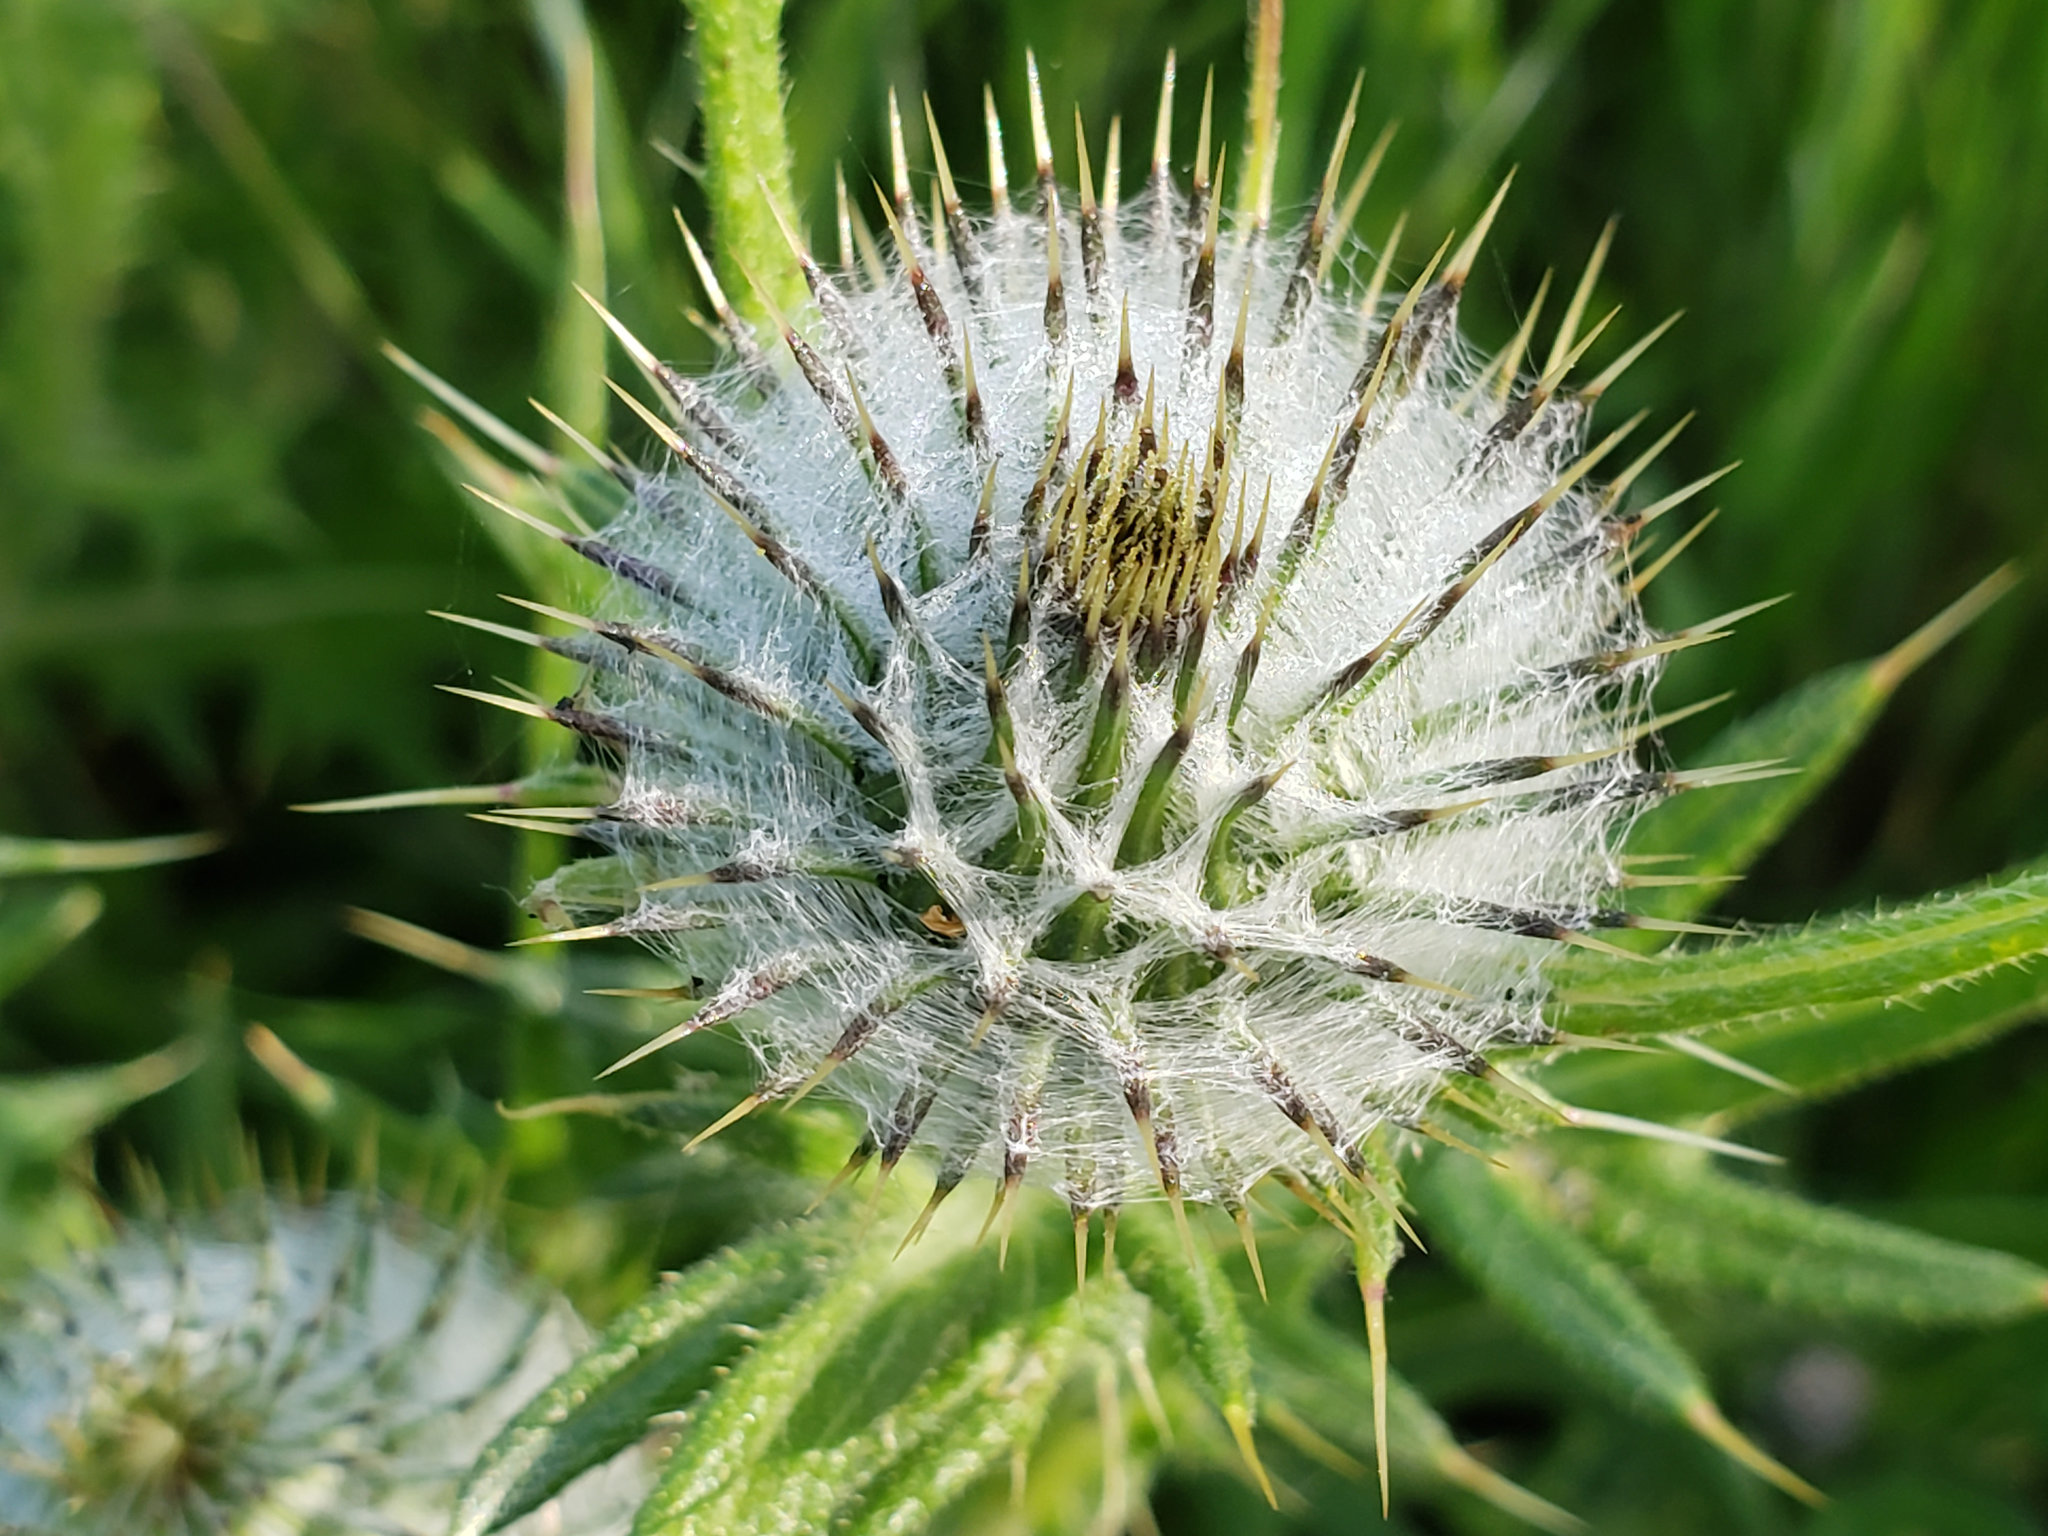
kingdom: Plantae
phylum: Tracheophyta
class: Magnoliopsida
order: Asterales
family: Asteraceae
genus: Cirsium
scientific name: Cirsium occidentale
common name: Western thistle
